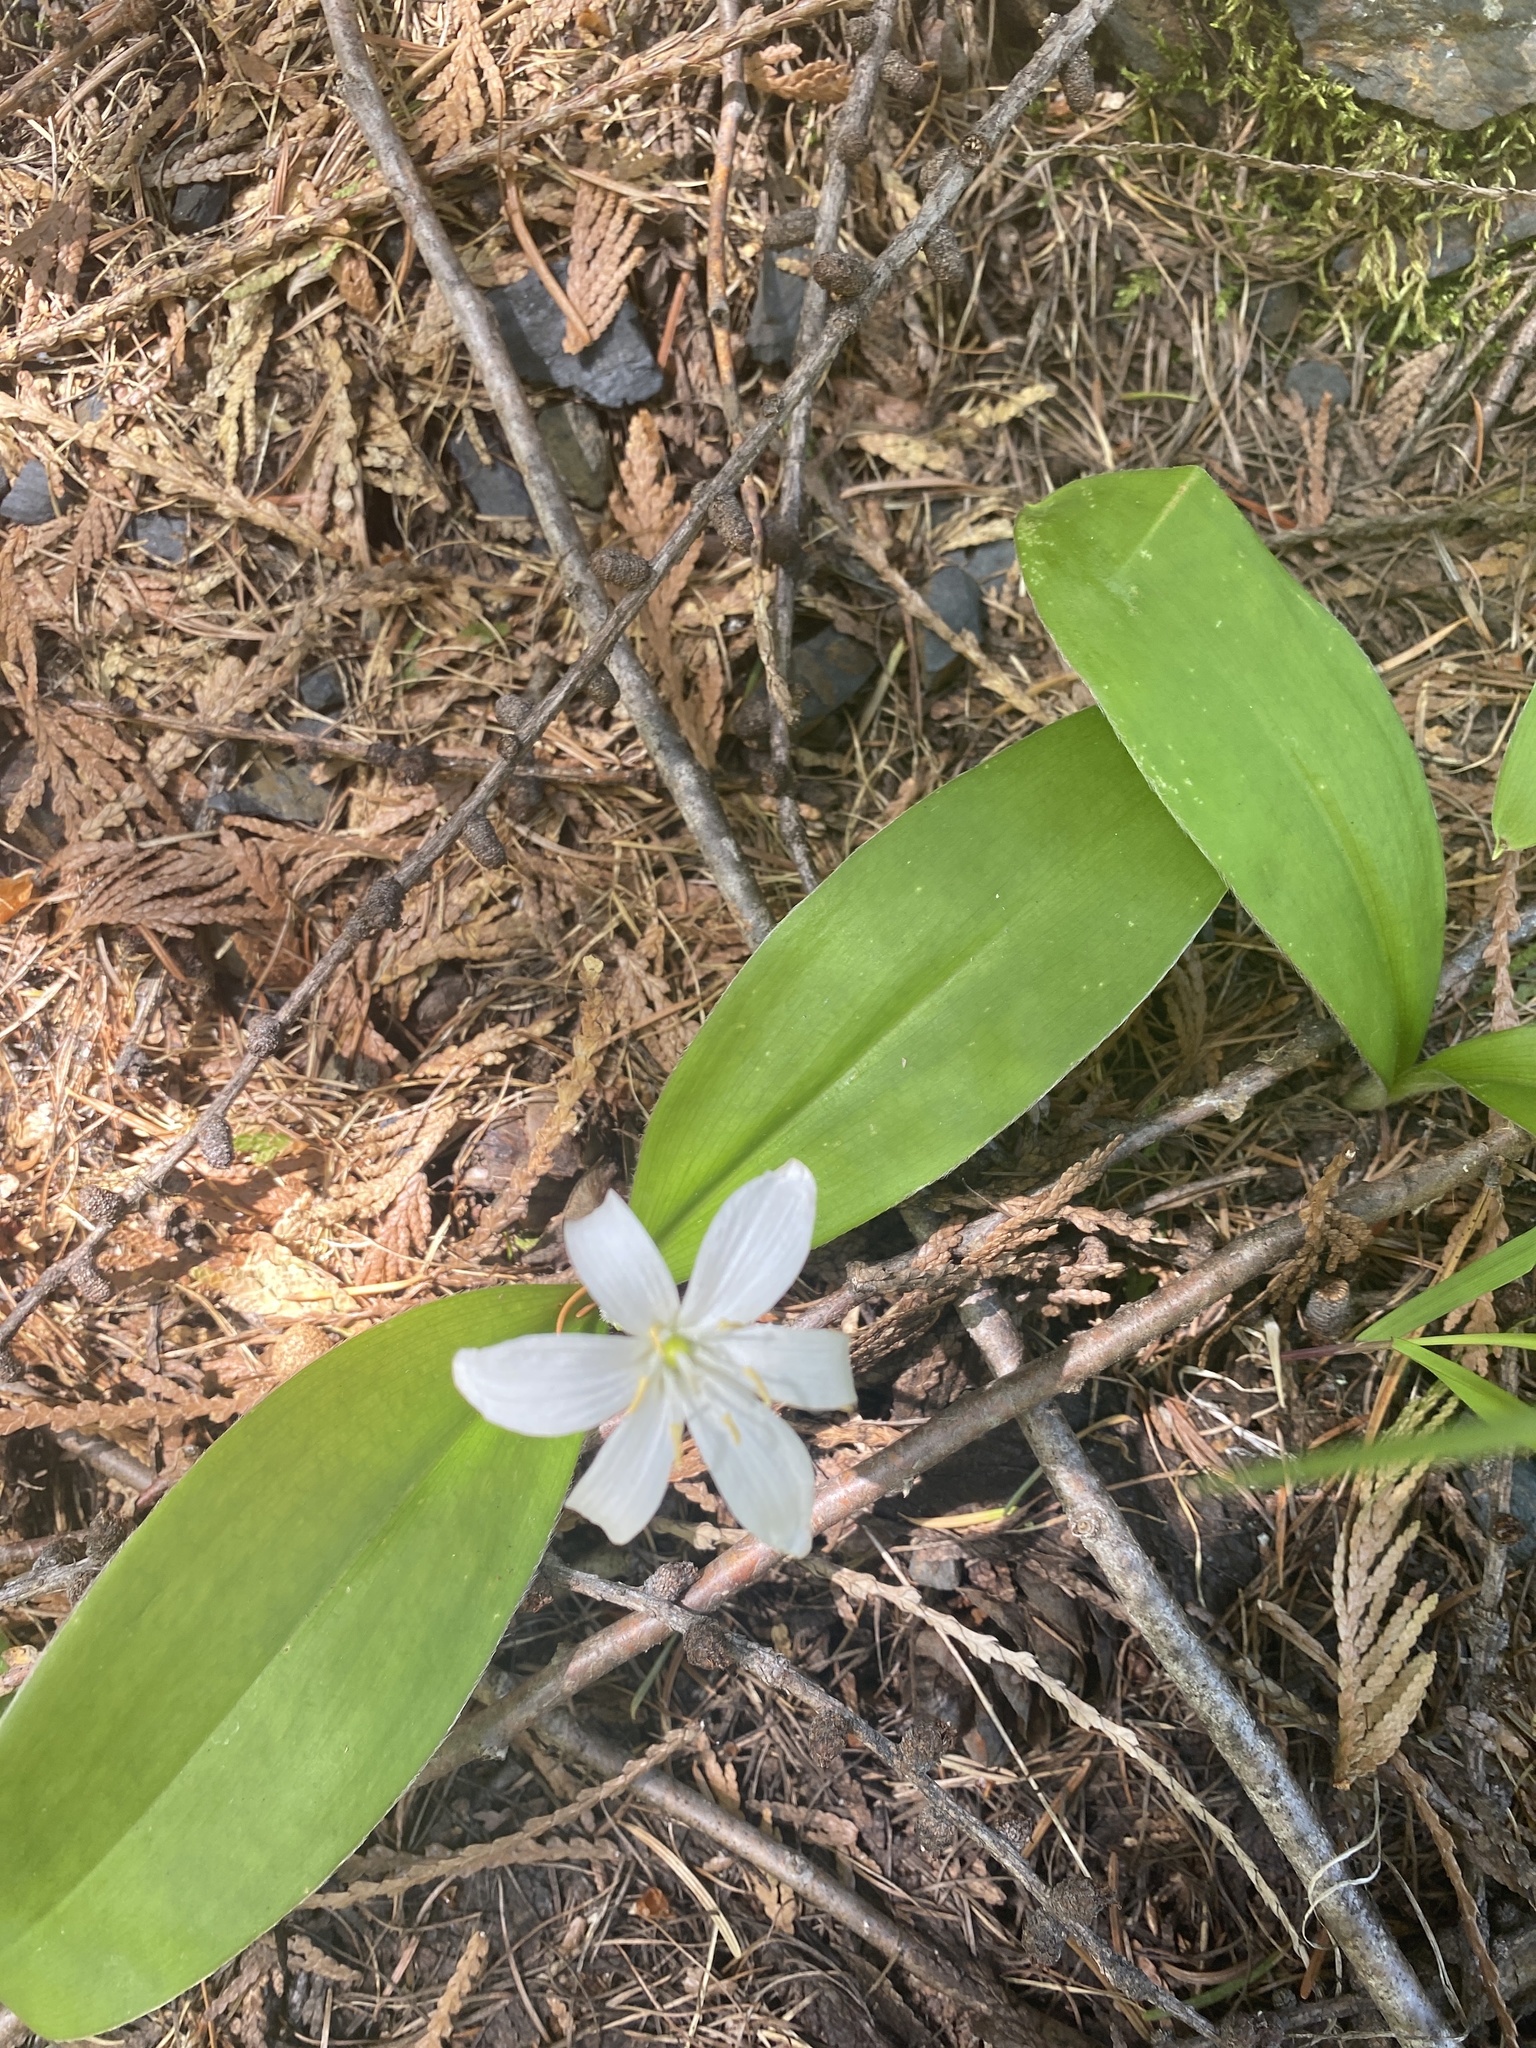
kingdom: Plantae
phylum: Tracheophyta
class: Liliopsida
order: Liliales
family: Liliaceae
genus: Clintonia
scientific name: Clintonia uniflora
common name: Queen's cup
